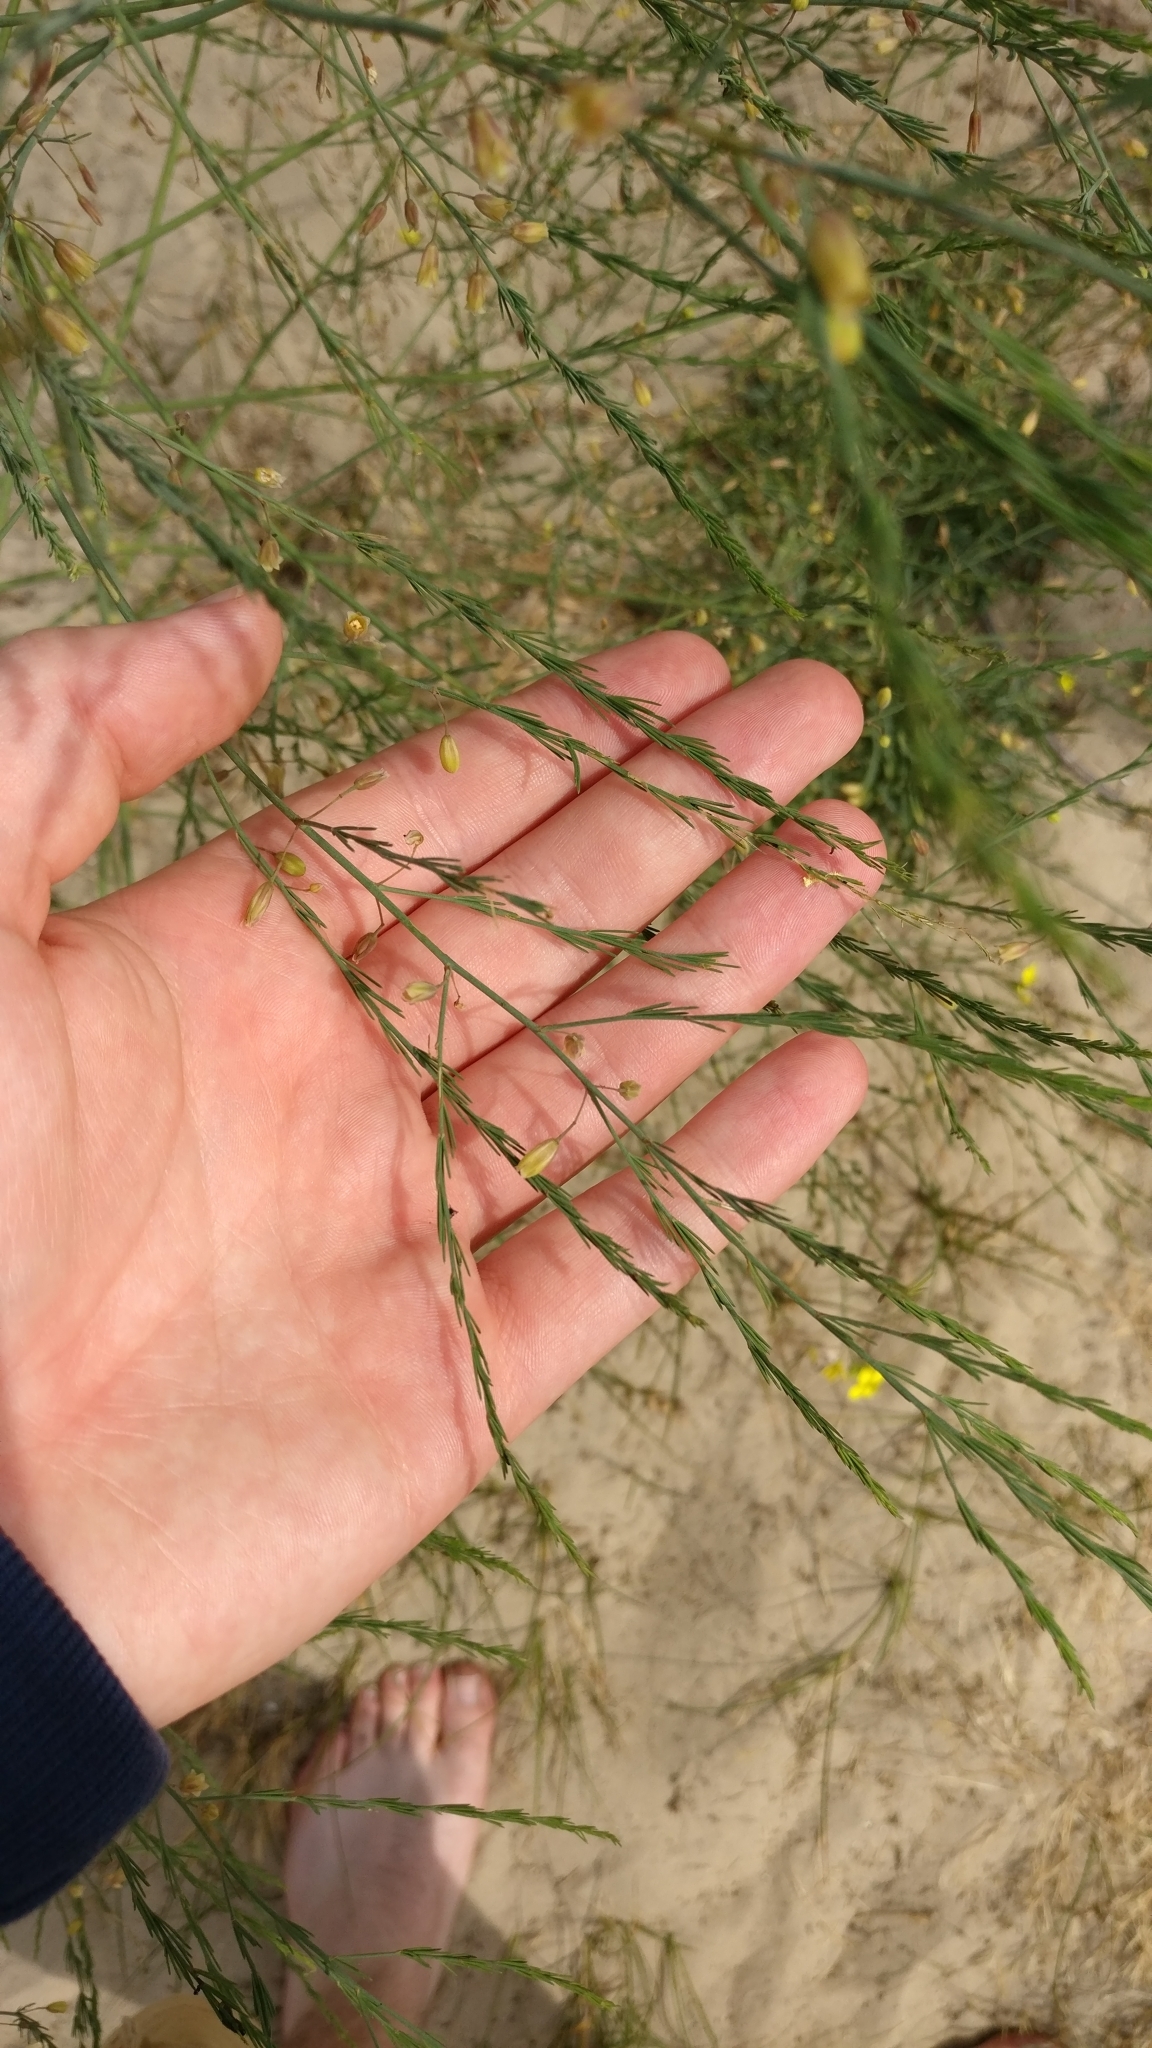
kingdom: Plantae
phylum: Tracheophyta
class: Liliopsida
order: Asparagales
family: Asparagaceae
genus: Asparagus
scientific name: Asparagus officinalis
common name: Garden asparagus
